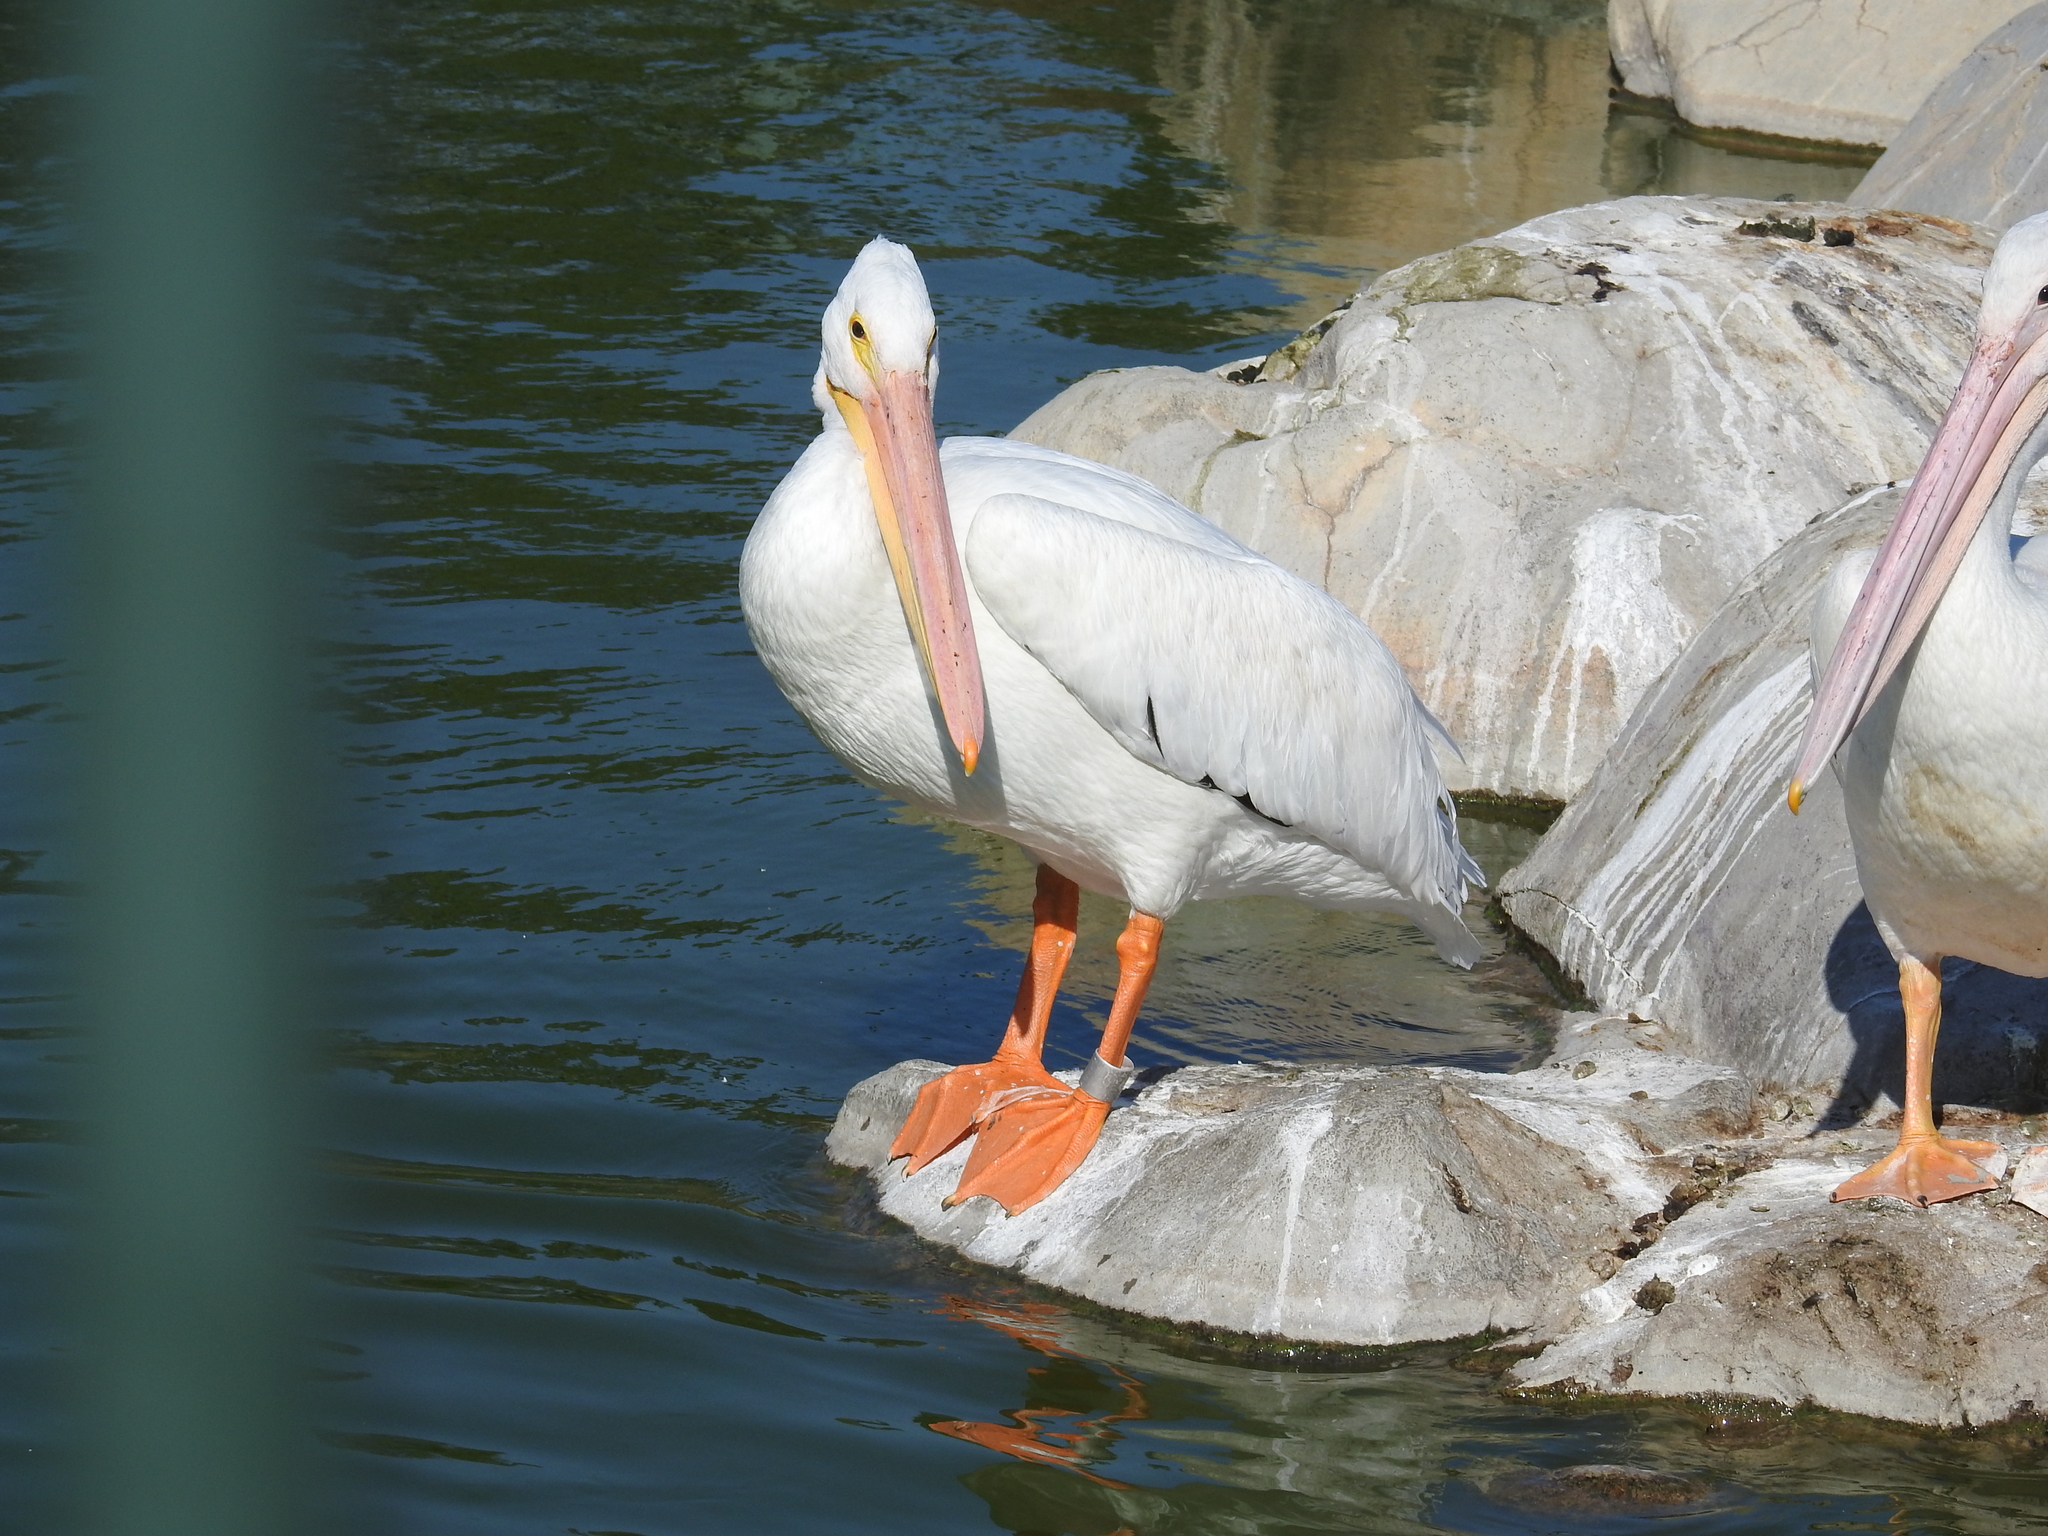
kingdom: Animalia
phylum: Chordata
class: Aves
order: Pelecaniformes
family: Pelecanidae
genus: Pelecanus
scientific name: Pelecanus erythrorhynchos
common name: American white pelican
